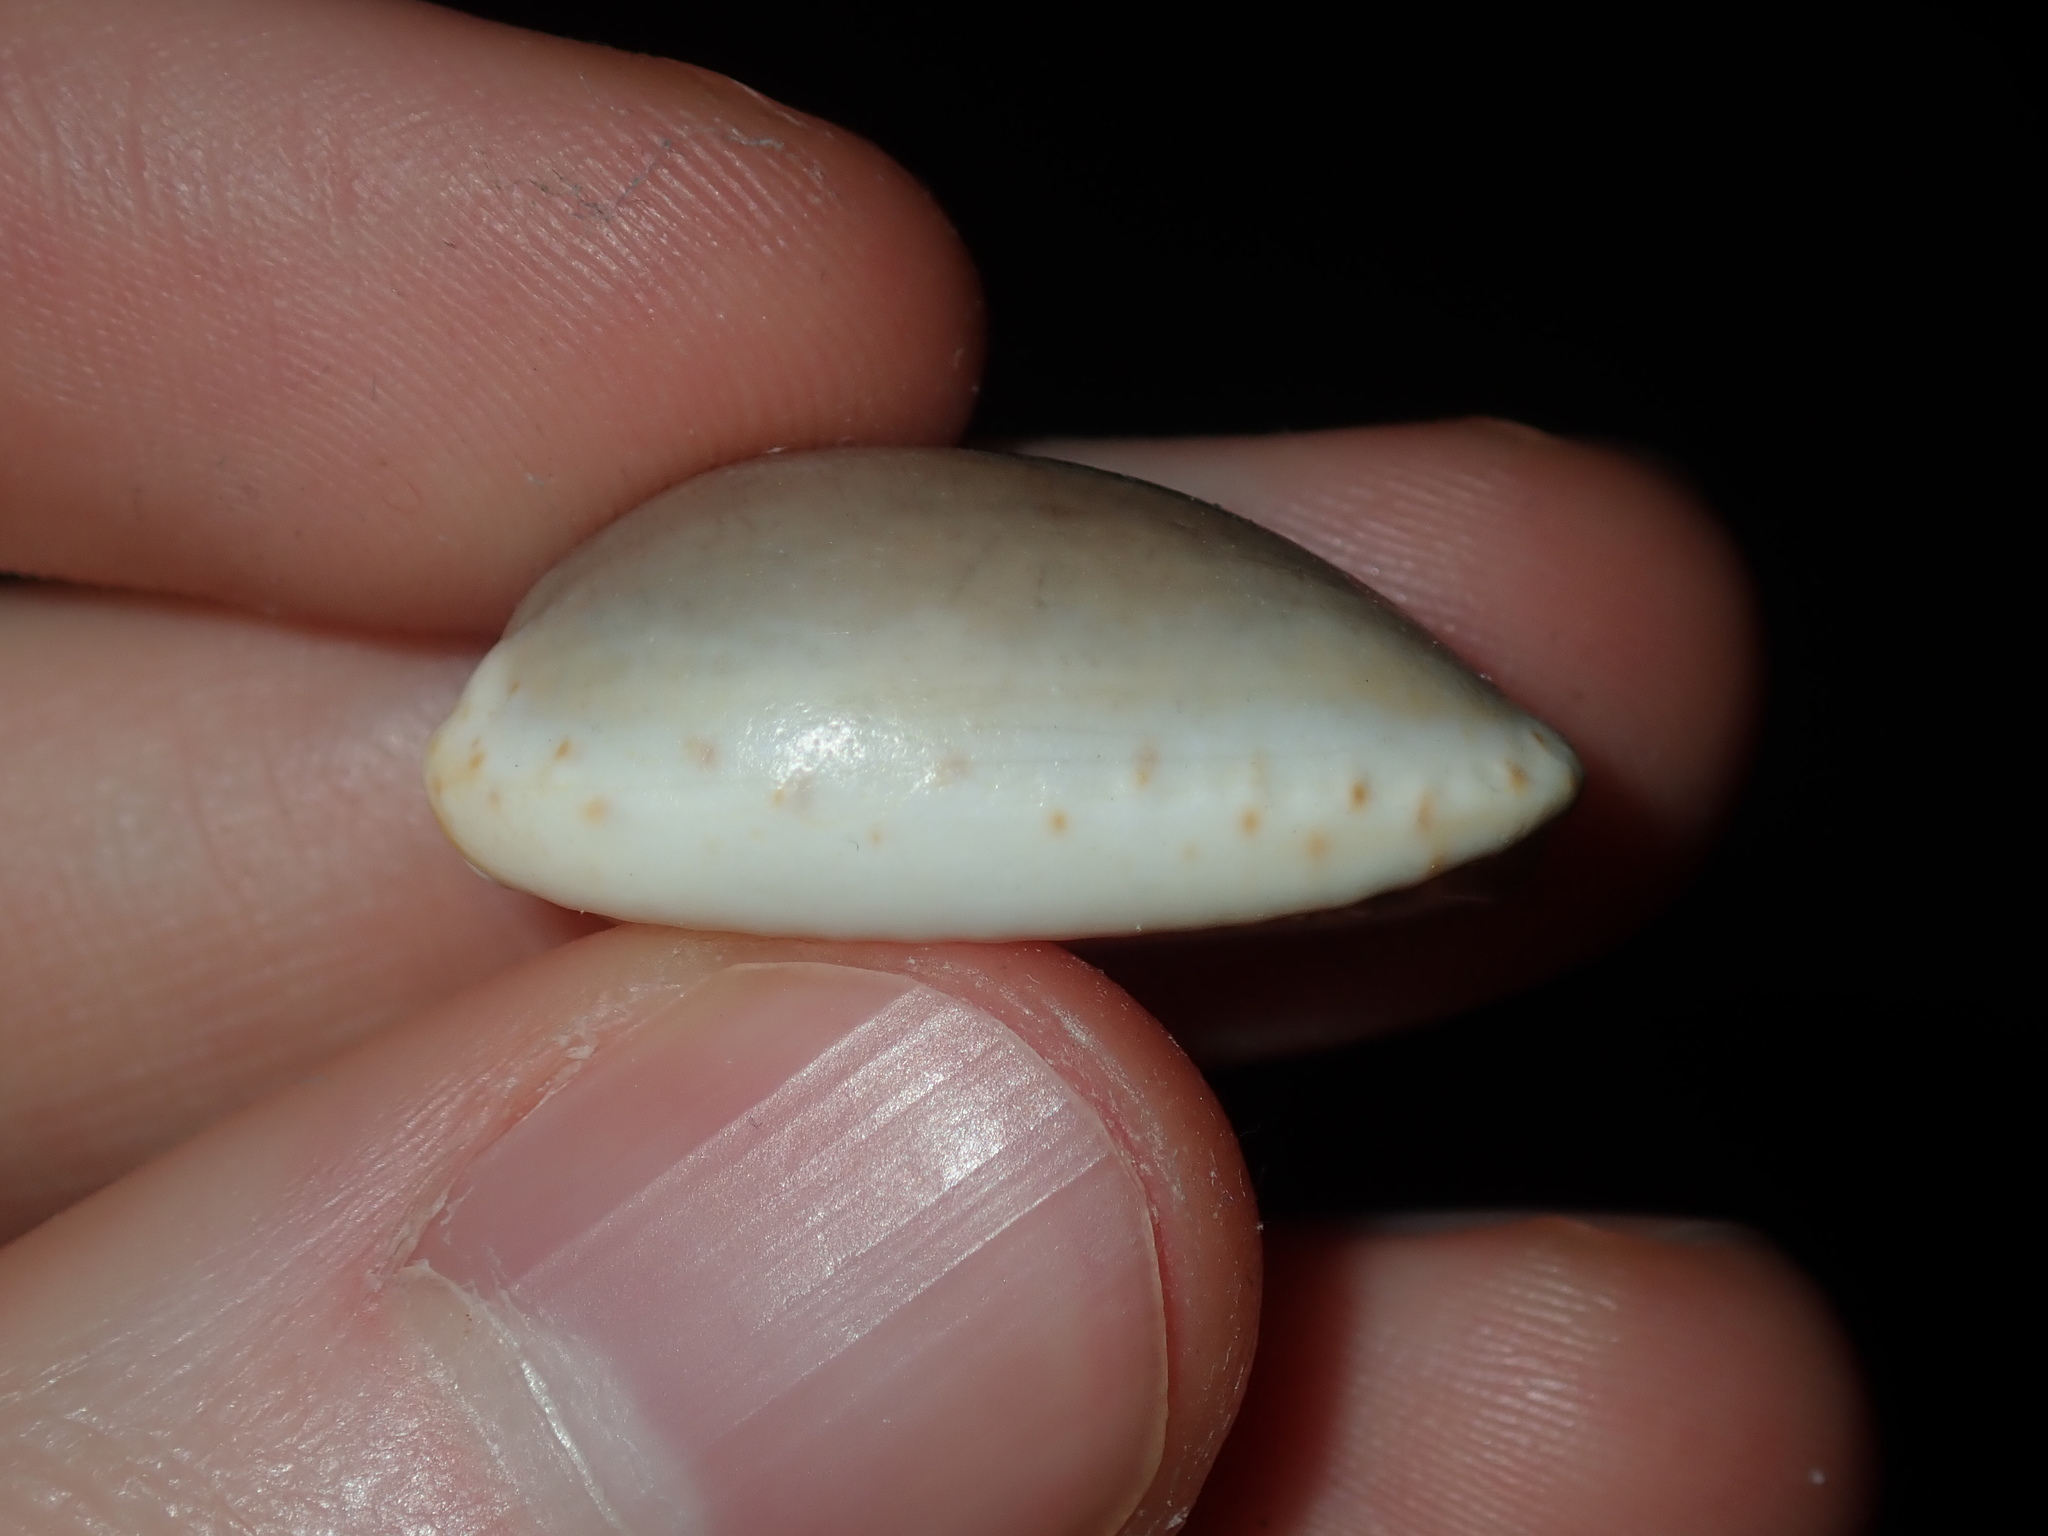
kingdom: Animalia
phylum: Mollusca
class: Gastropoda
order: Littorinimorpha
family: Cypraeidae
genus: Naria
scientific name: Naria erosa
